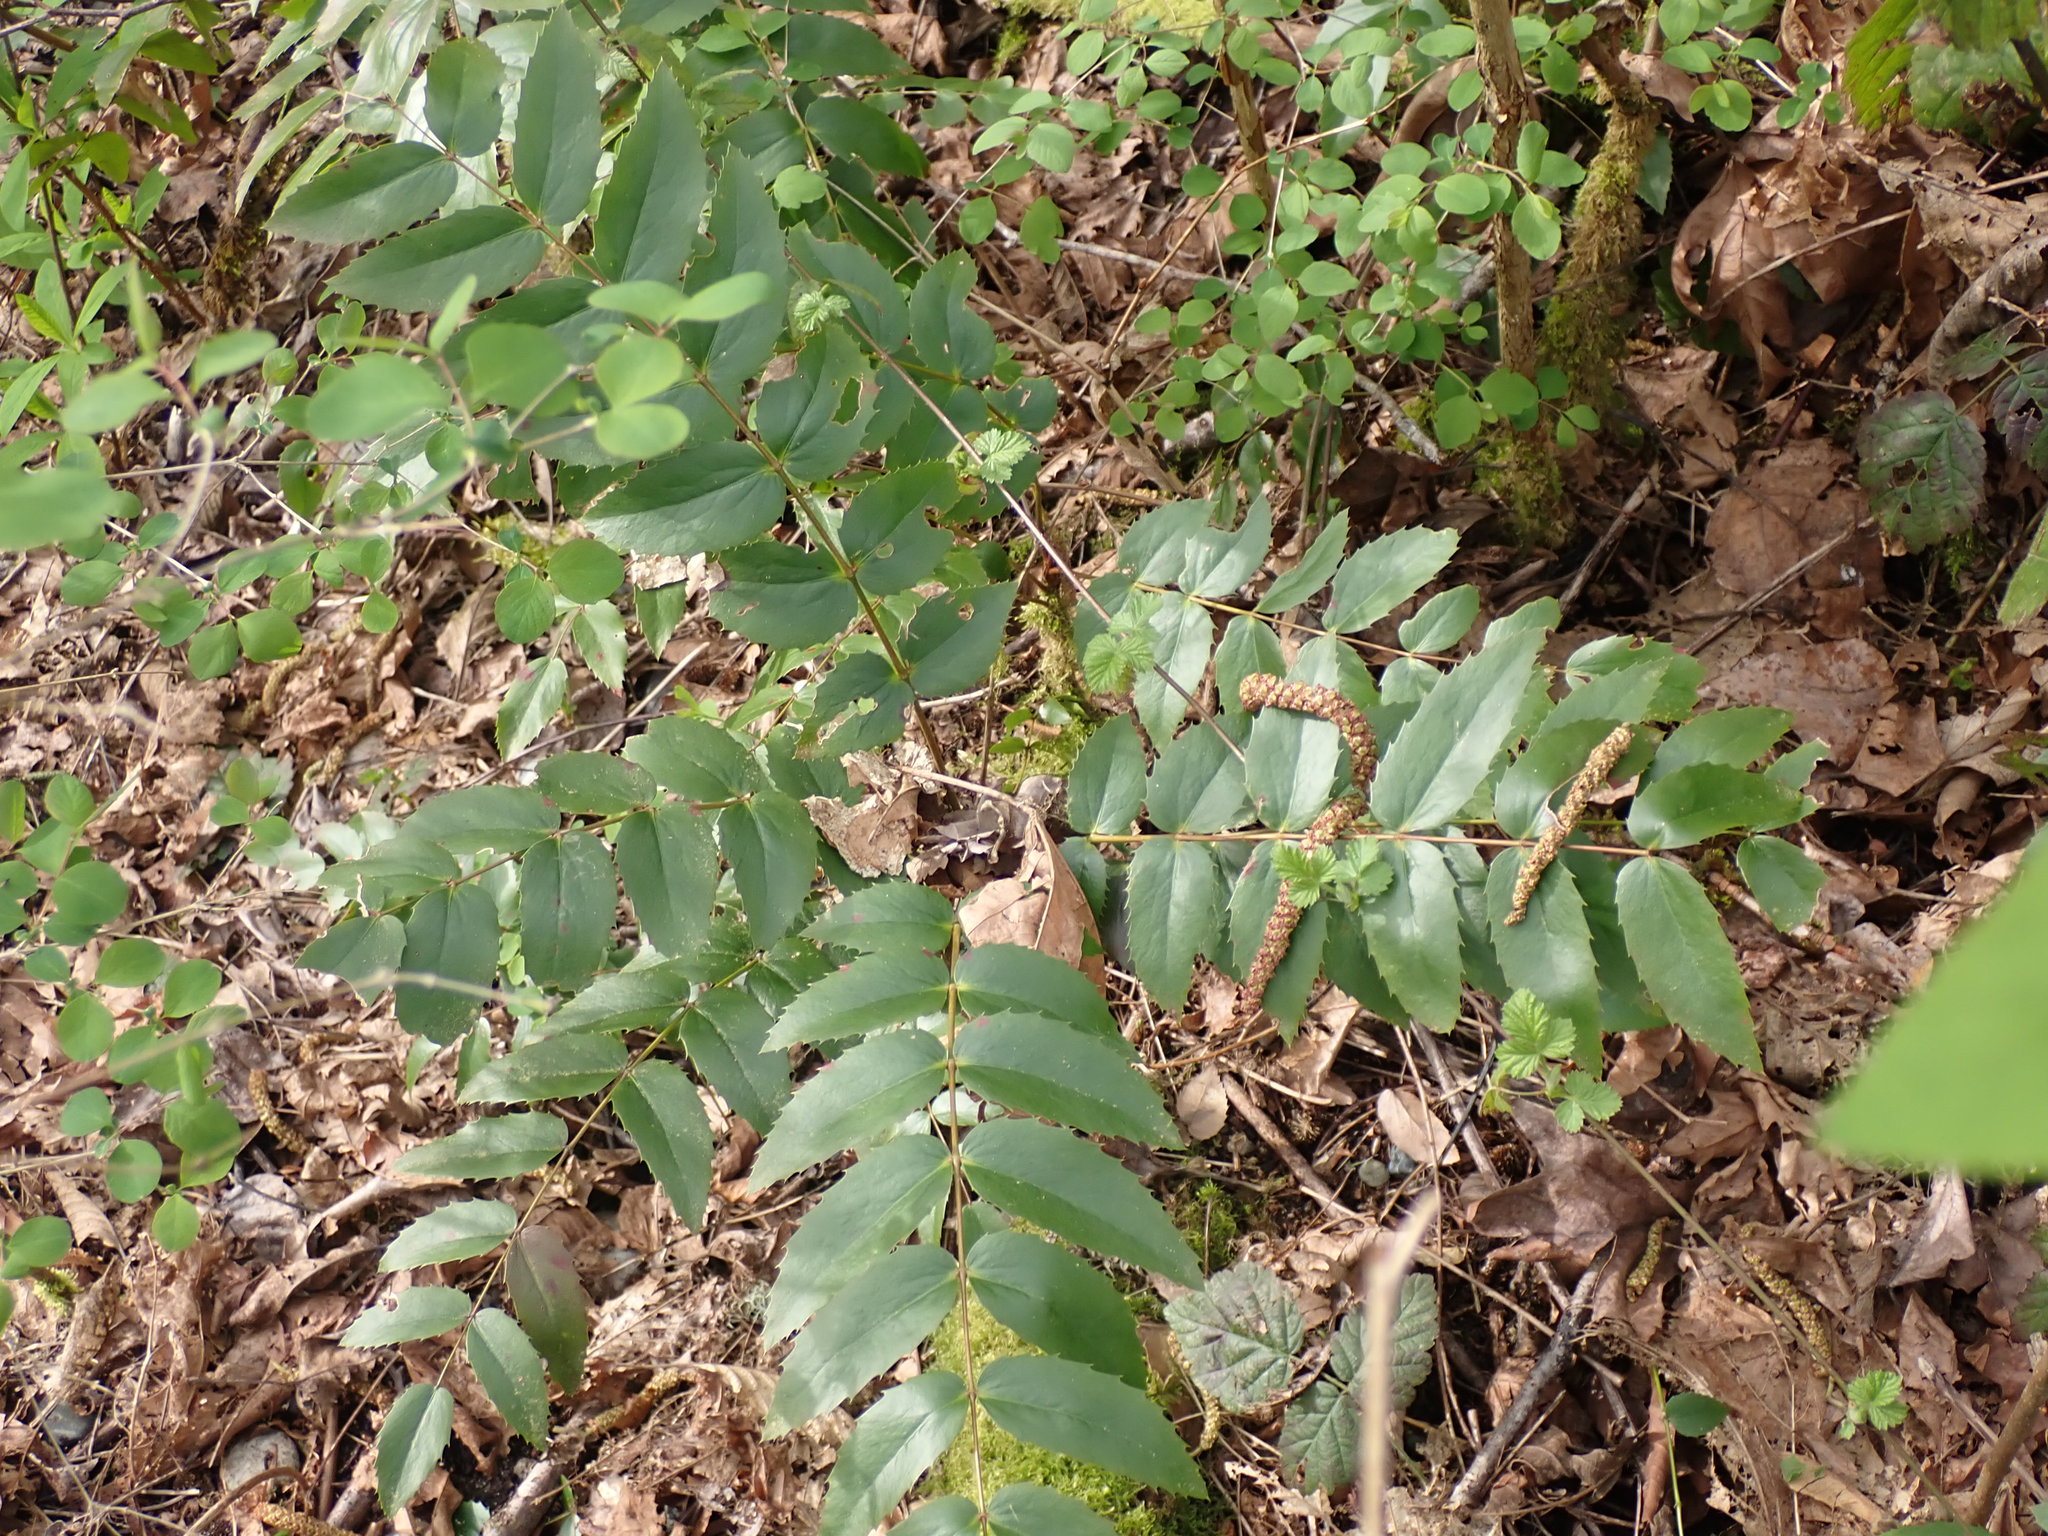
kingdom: Plantae
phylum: Tracheophyta
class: Magnoliopsida
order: Ranunculales
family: Berberidaceae
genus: Mahonia
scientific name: Mahonia nervosa
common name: Cascade oregon-grape
